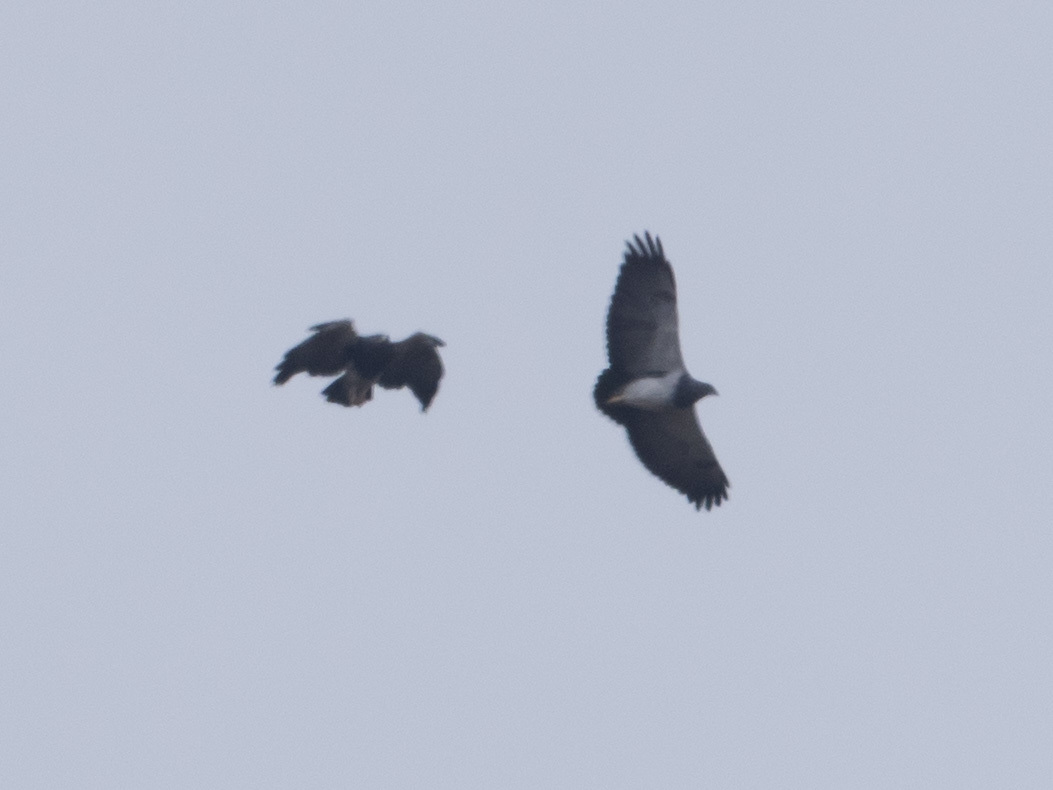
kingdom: Animalia
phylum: Chordata
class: Aves
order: Accipitriformes
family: Accipitridae
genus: Geranoaetus
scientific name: Geranoaetus melanoleucus
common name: Black-chested buzzard-eagle
